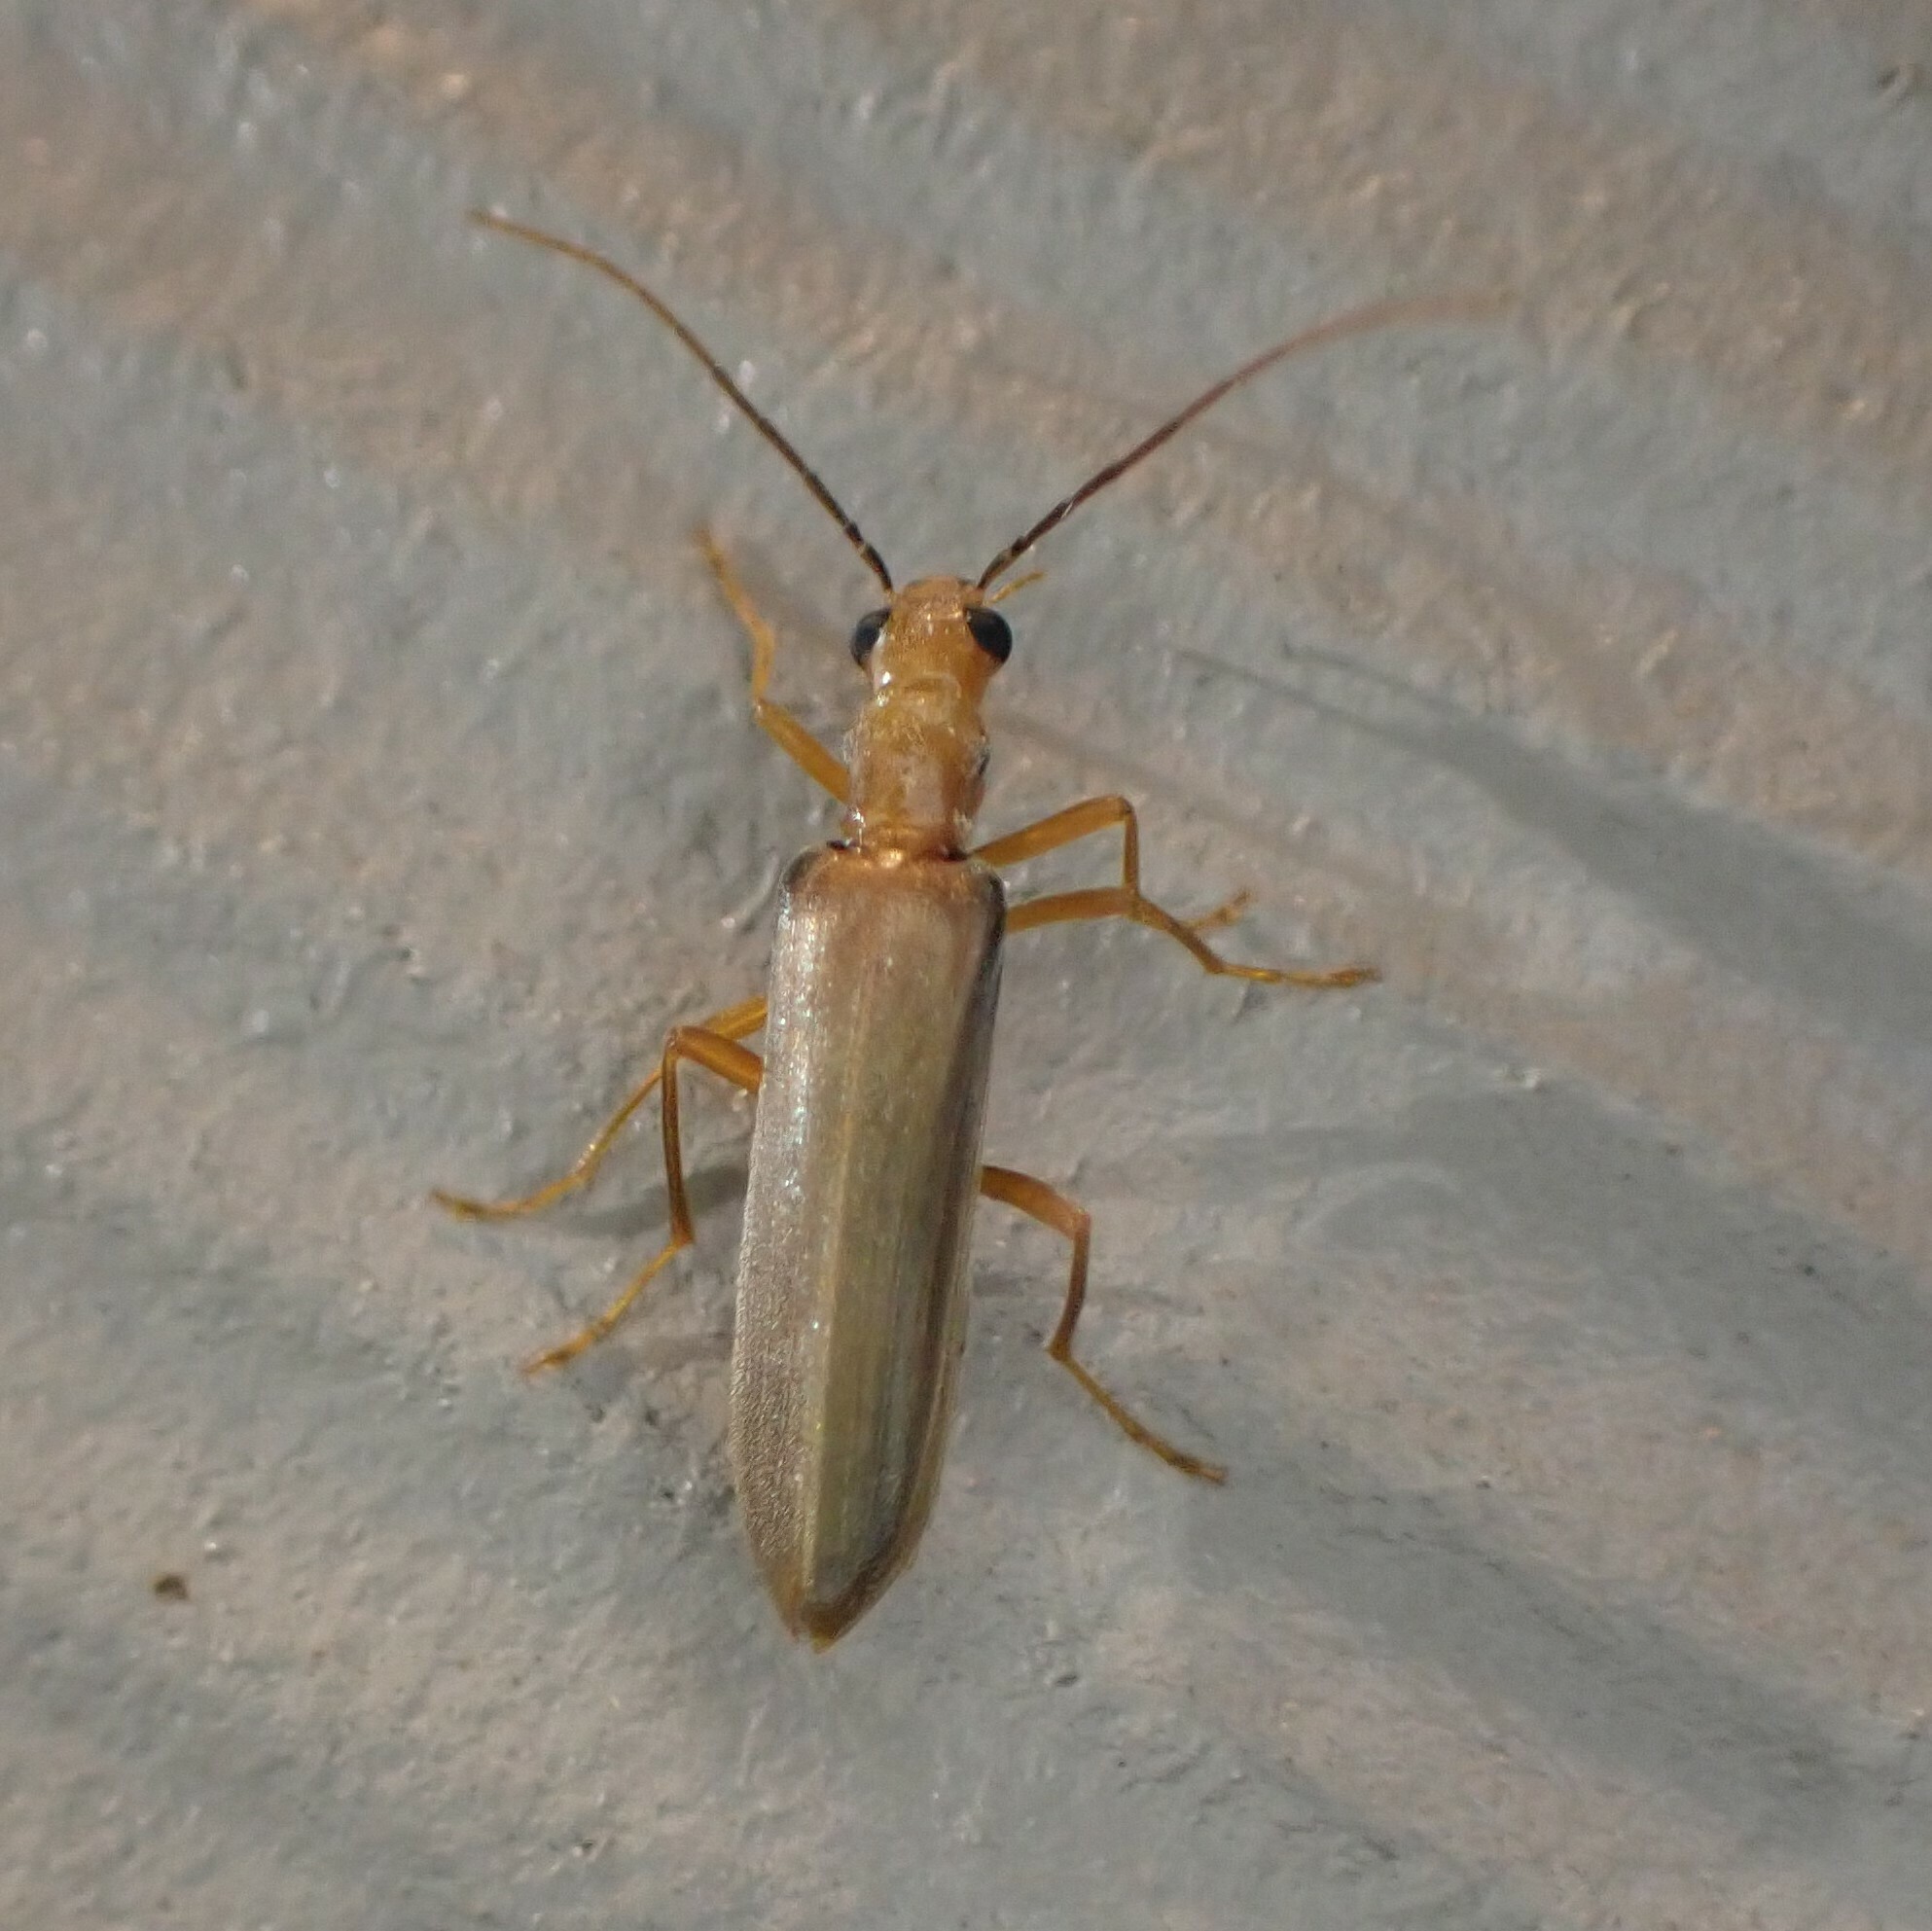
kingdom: Animalia
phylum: Arthropoda
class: Insecta
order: Coleoptera
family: Oedemeridae
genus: Nacerdes
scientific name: Nacerdes
